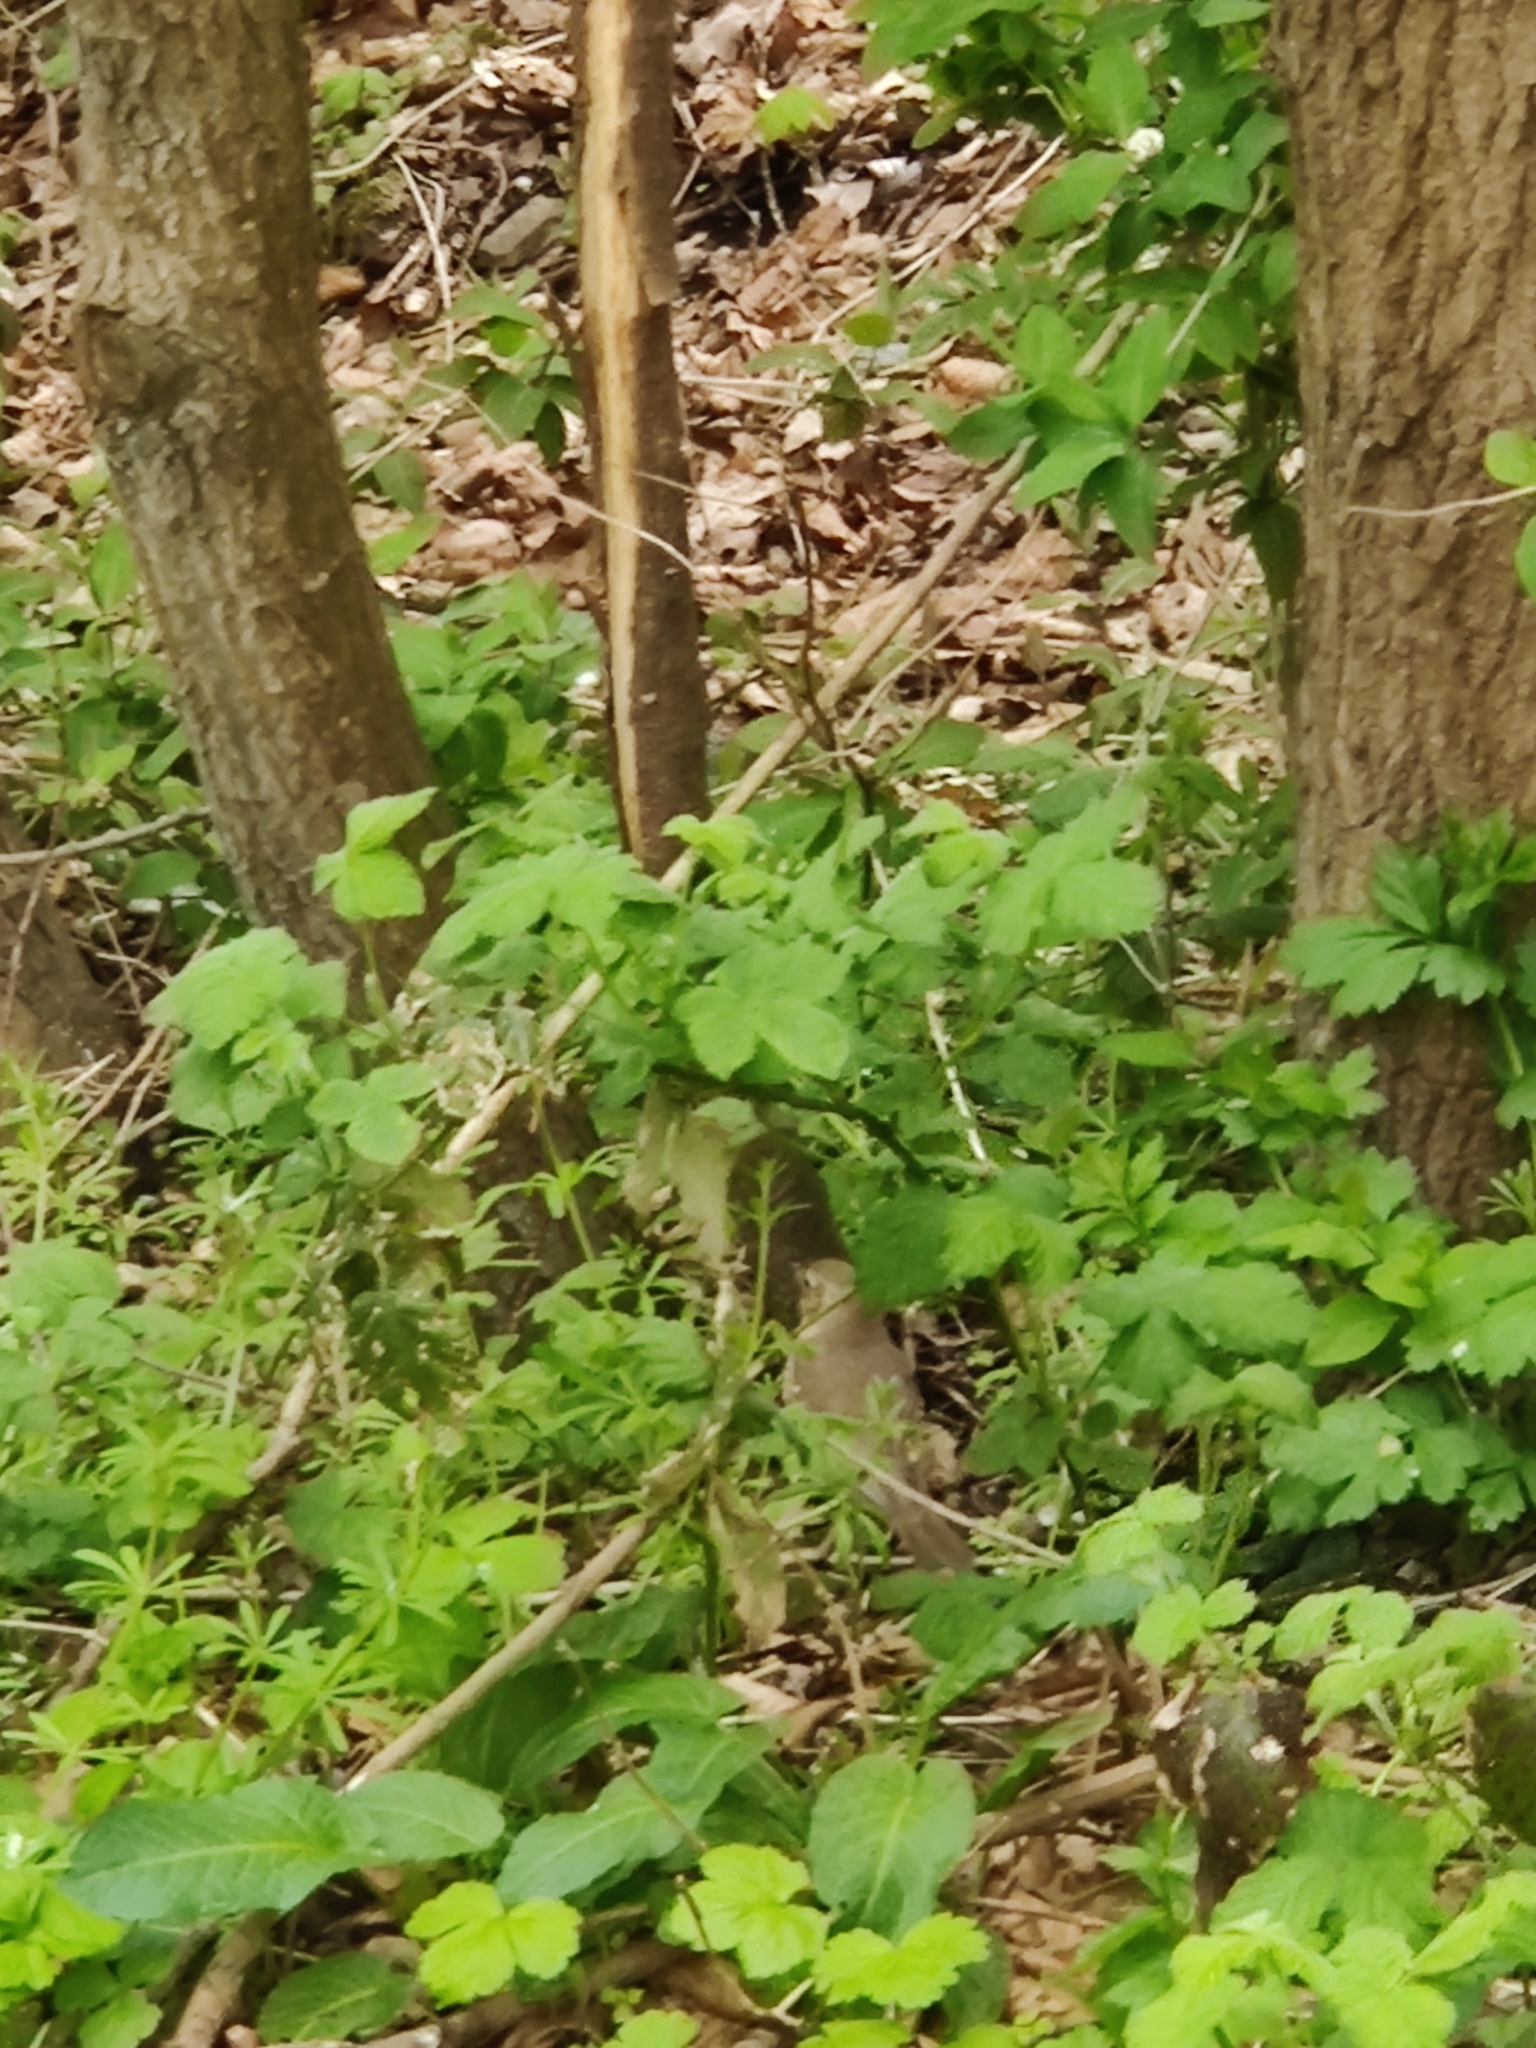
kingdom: Animalia
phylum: Chordata
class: Aves
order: Passeriformes
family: Turdidae
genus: Turdus
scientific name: Turdus philomelos
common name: Song thrush
